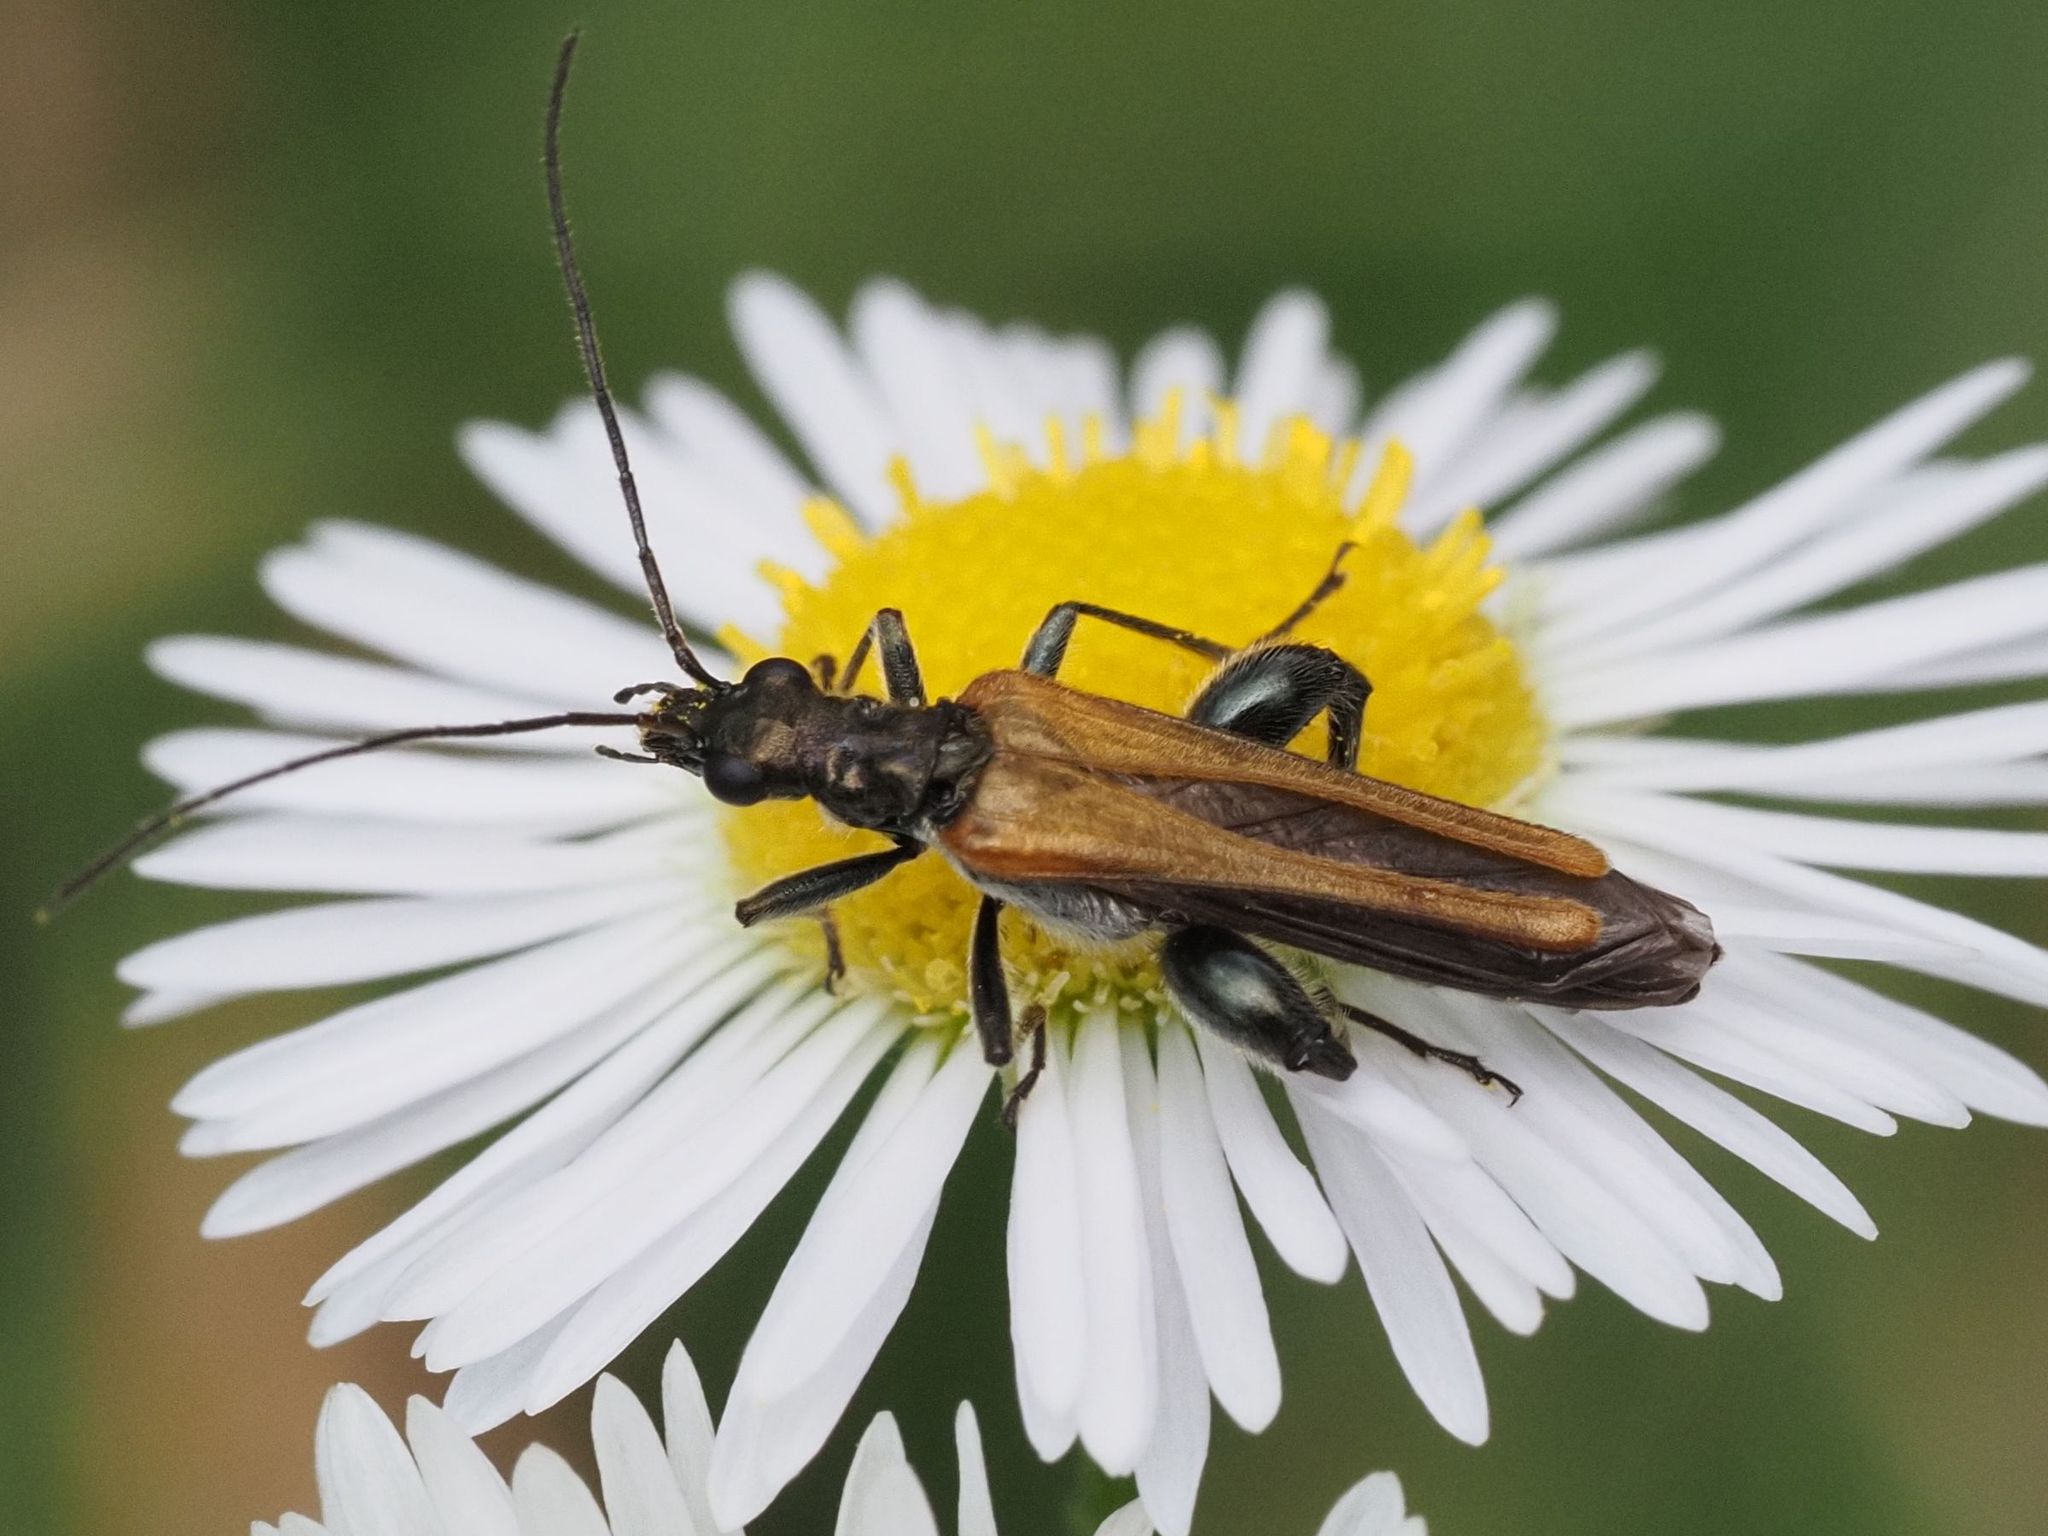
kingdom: Animalia
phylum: Arthropoda
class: Insecta
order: Coleoptera
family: Oedemeridae
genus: Oedemera
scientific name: Oedemera femorata
